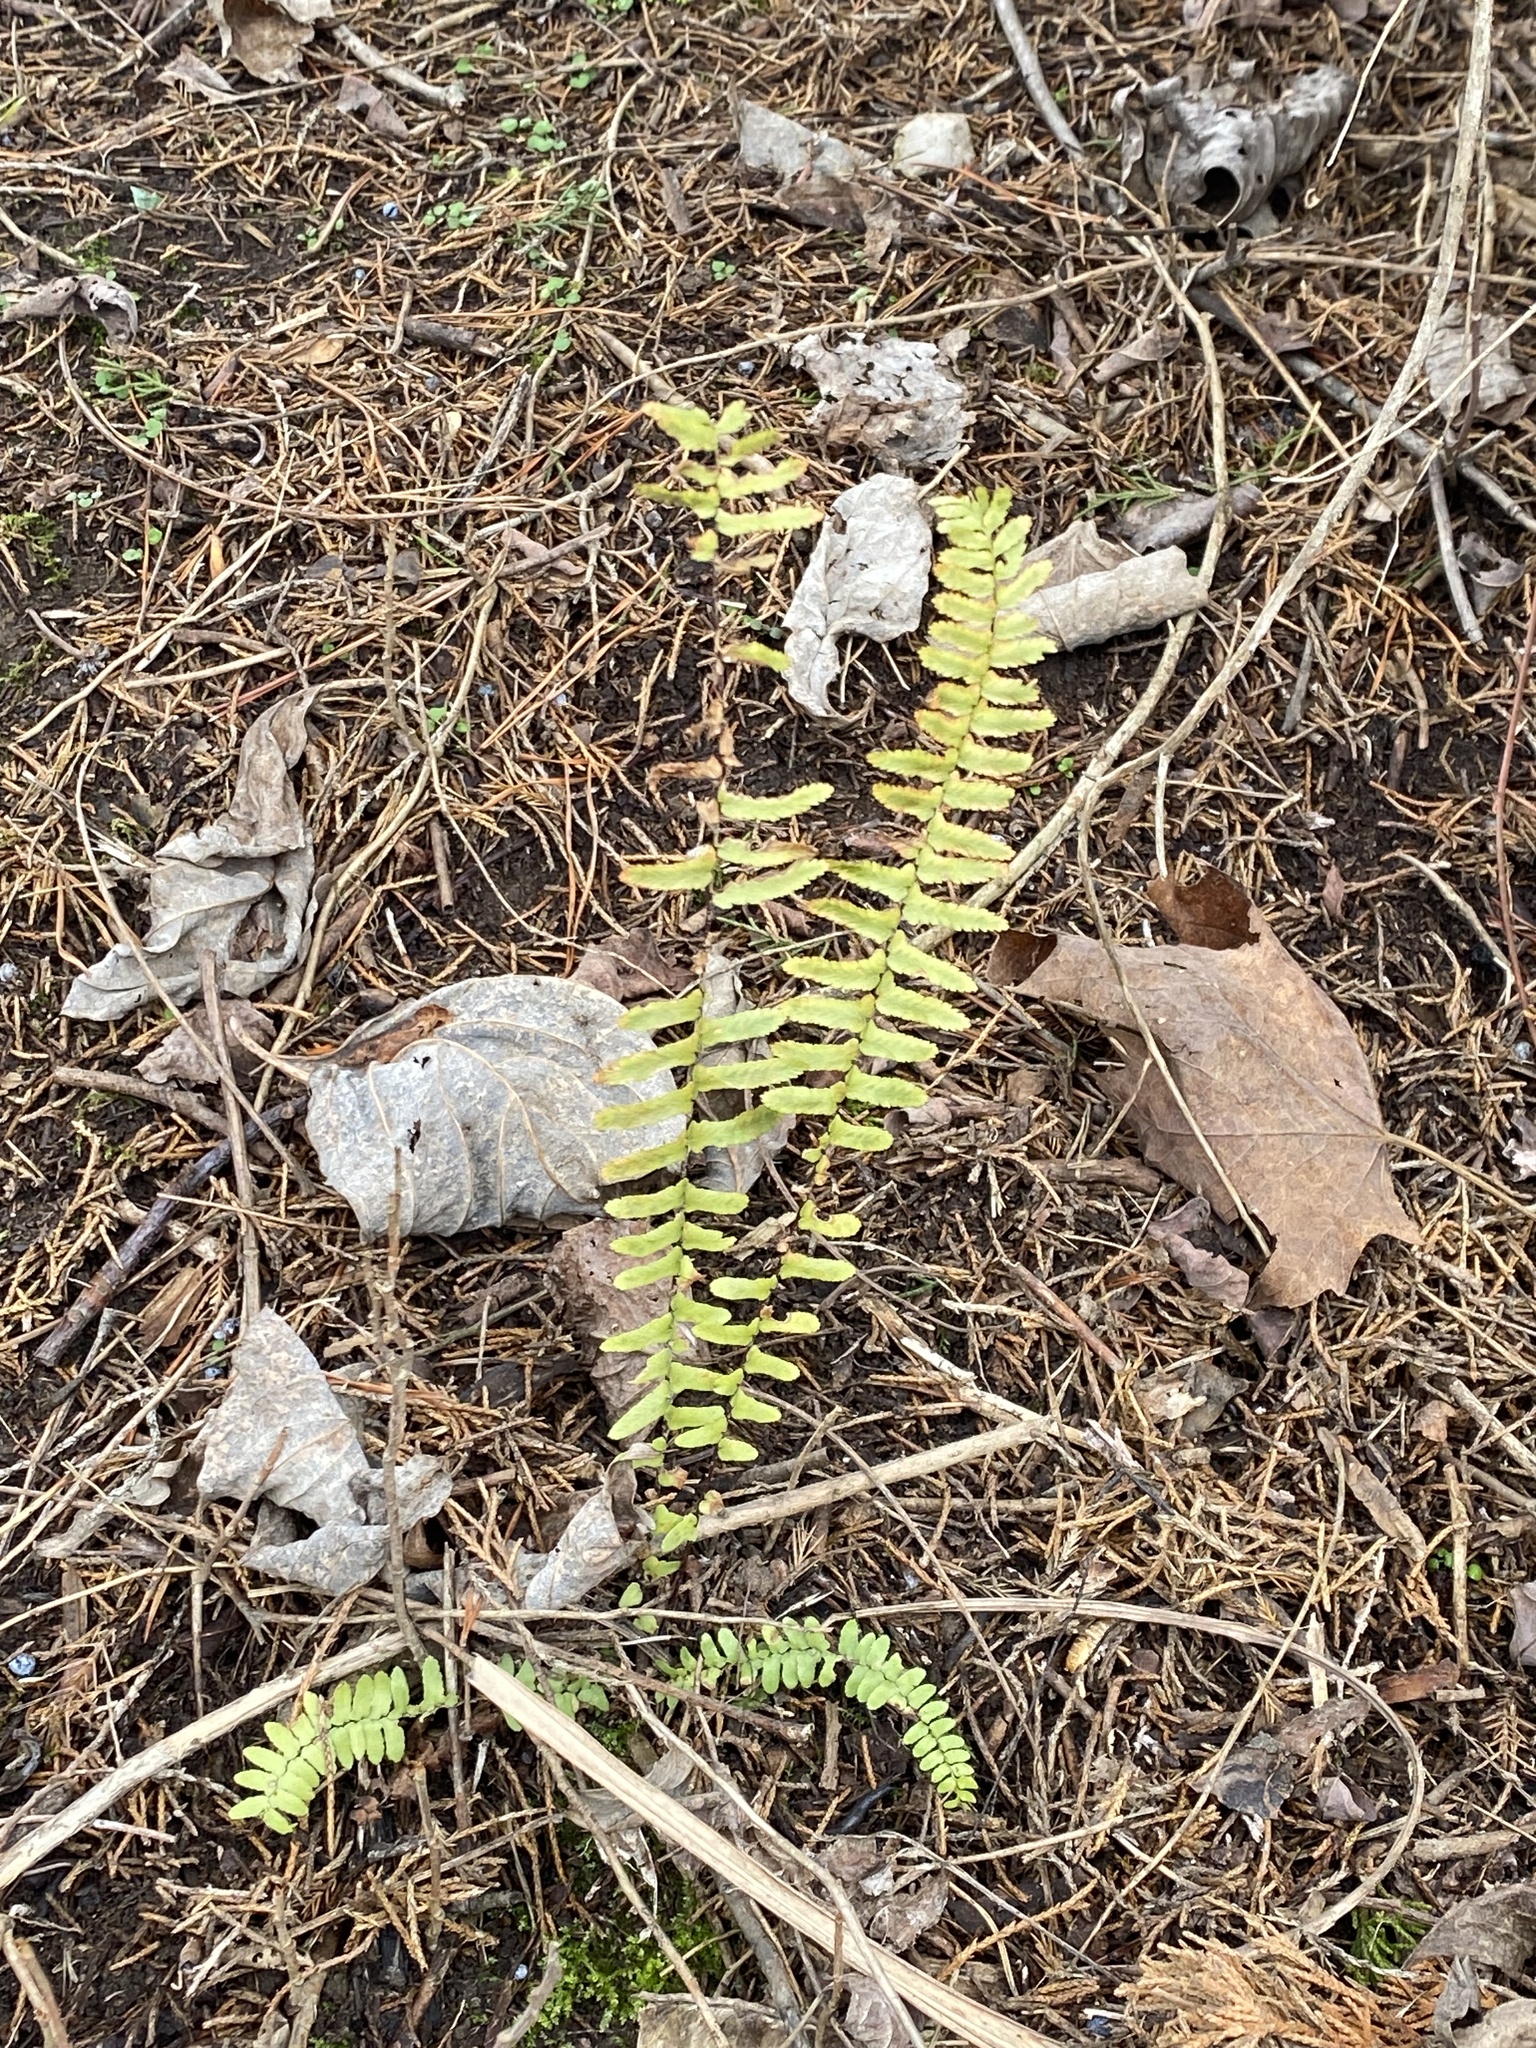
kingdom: Plantae
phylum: Tracheophyta
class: Polypodiopsida
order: Polypodiales
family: Aspleniaceae
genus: Asplenium
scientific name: Asplenium platyneuron
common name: Ebony spleenwort
